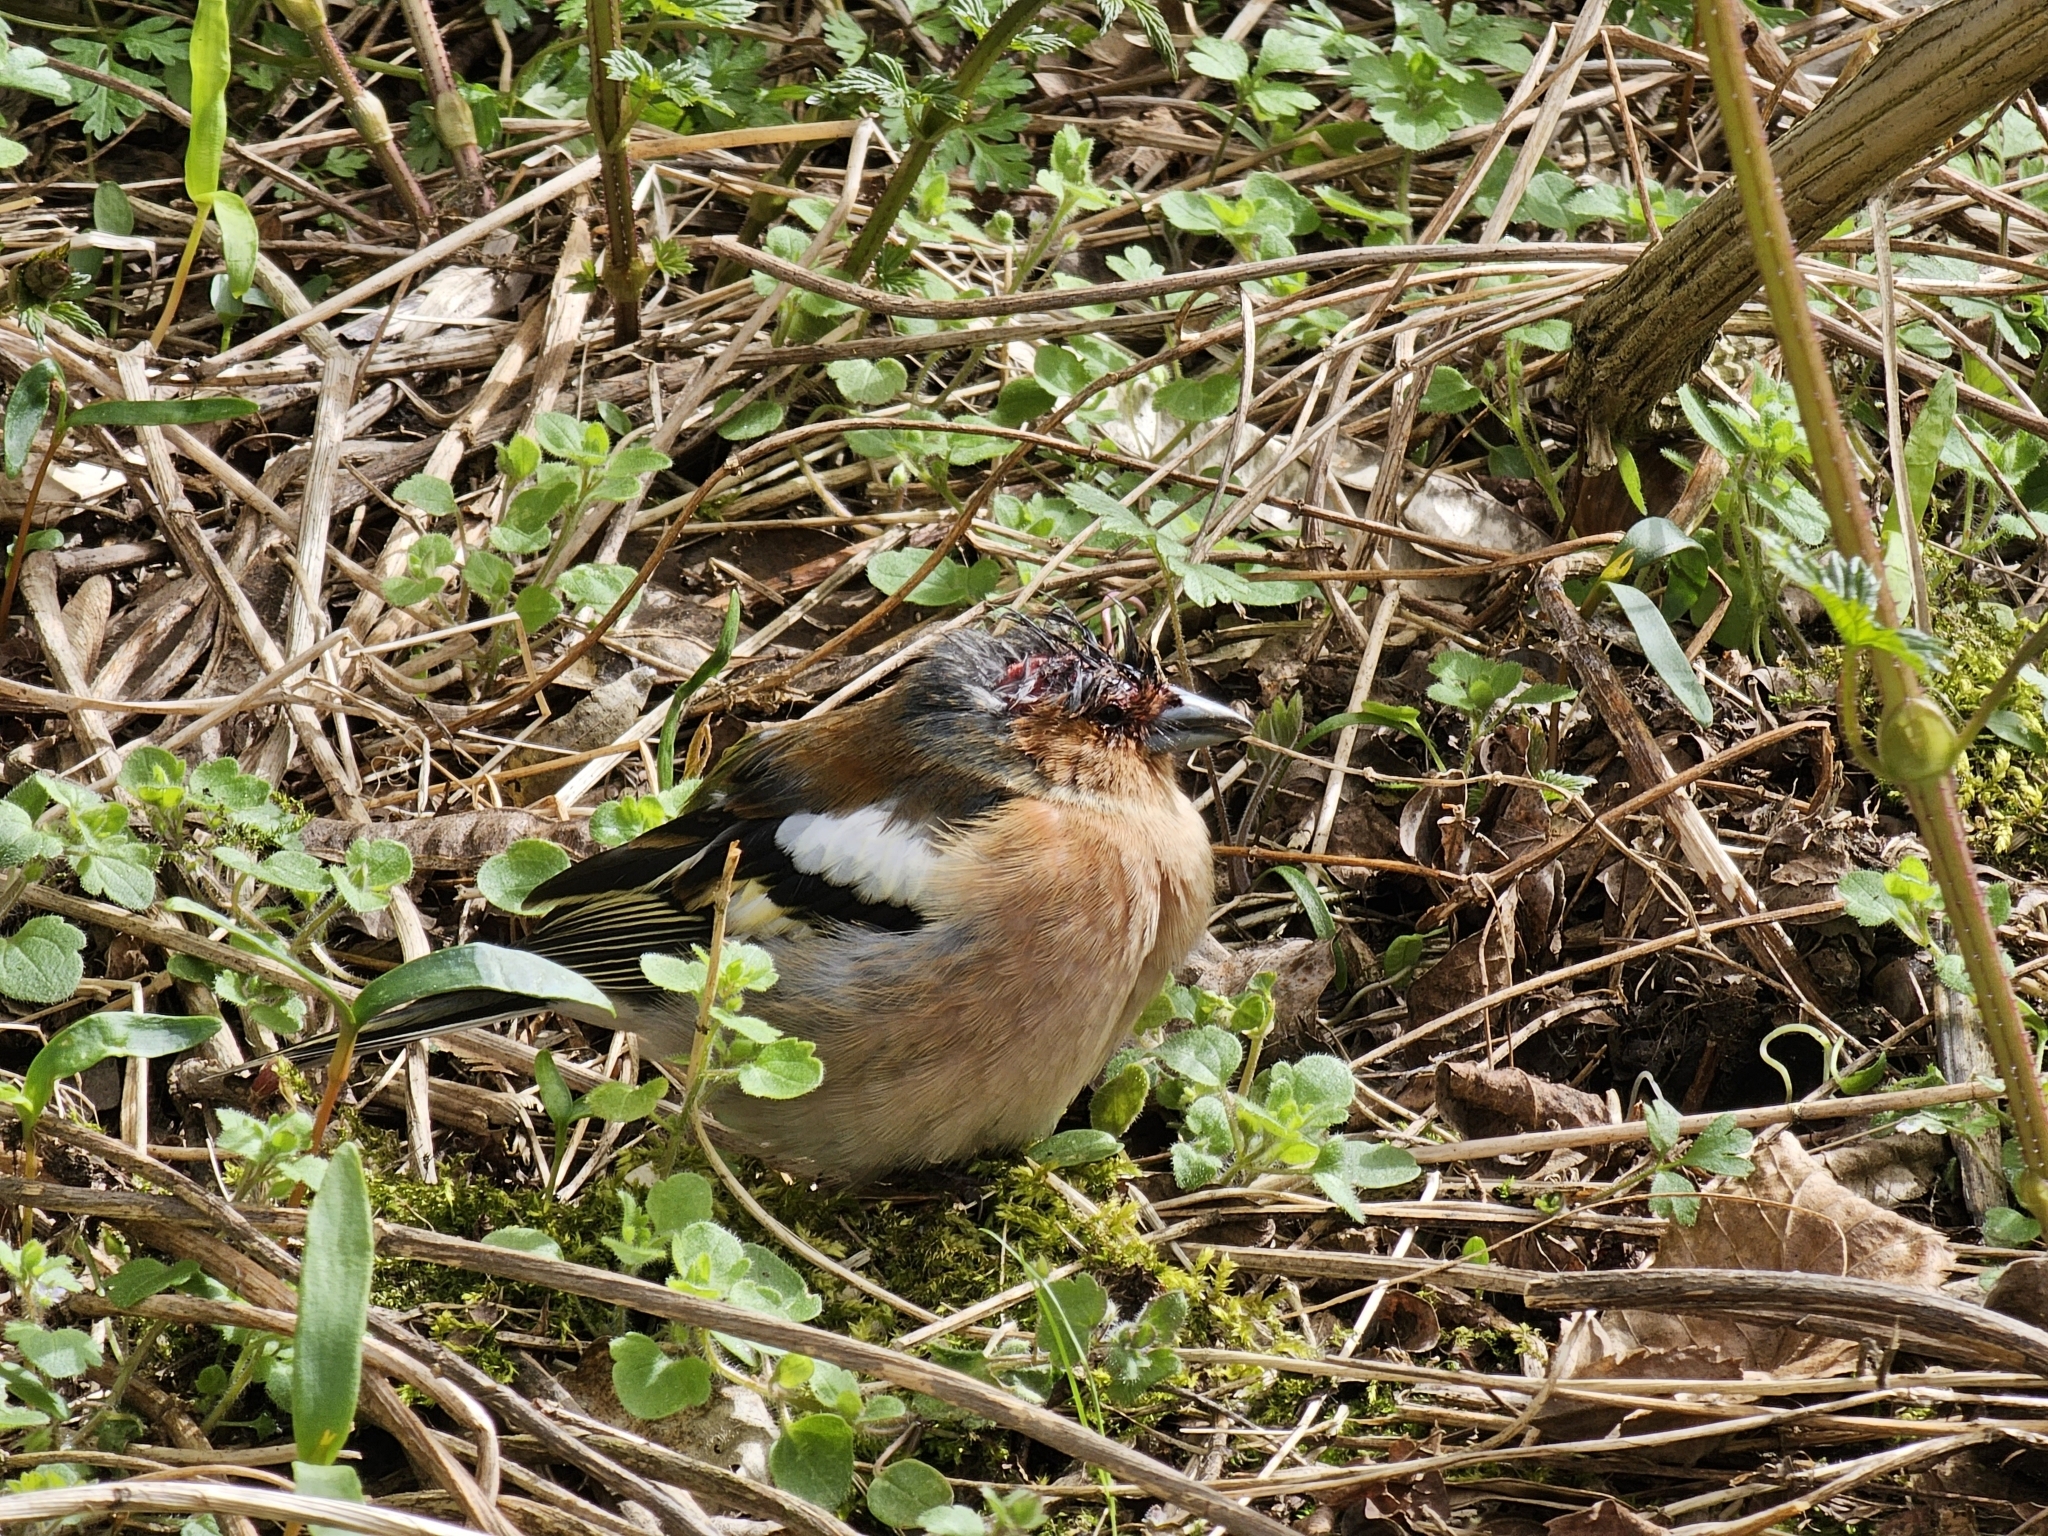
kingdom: Animalia
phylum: Chordata
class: Aves
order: Passeriformes
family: Fringillidae
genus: Fringilla
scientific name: Fringilla coelebs
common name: Common chaffinch
